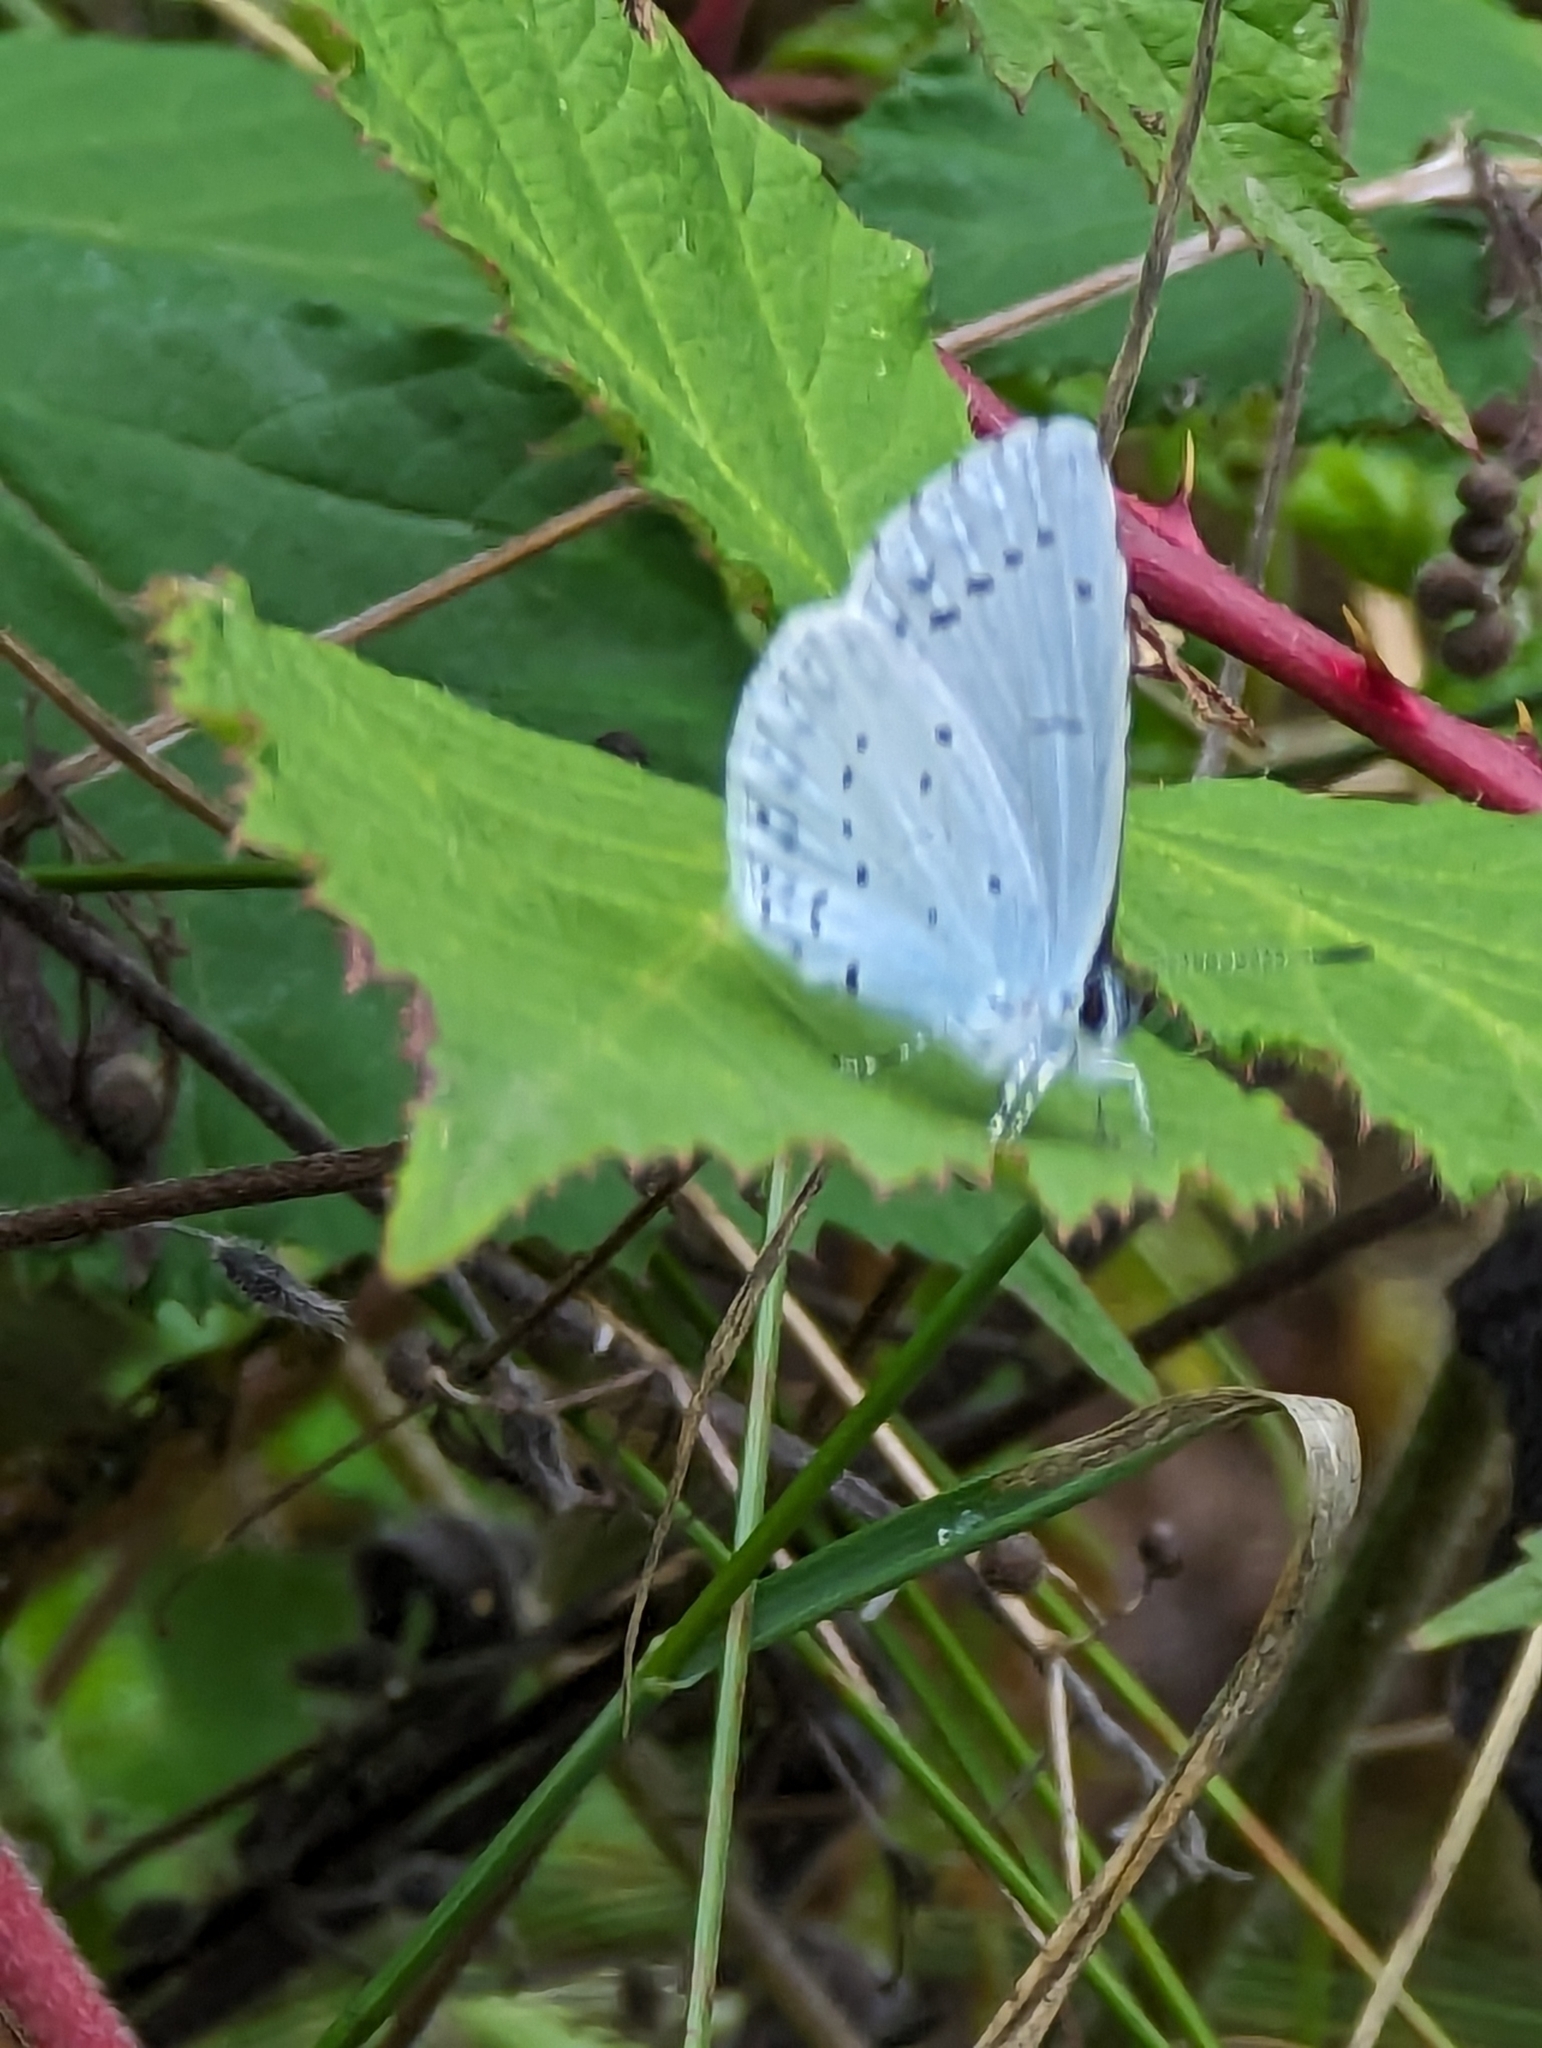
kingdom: Animalia
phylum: Arthropoda
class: Insecta
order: Lepidoptera
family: Lycaenidae
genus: Celastrina
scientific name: Celastrina argiolus
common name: Holly blue
